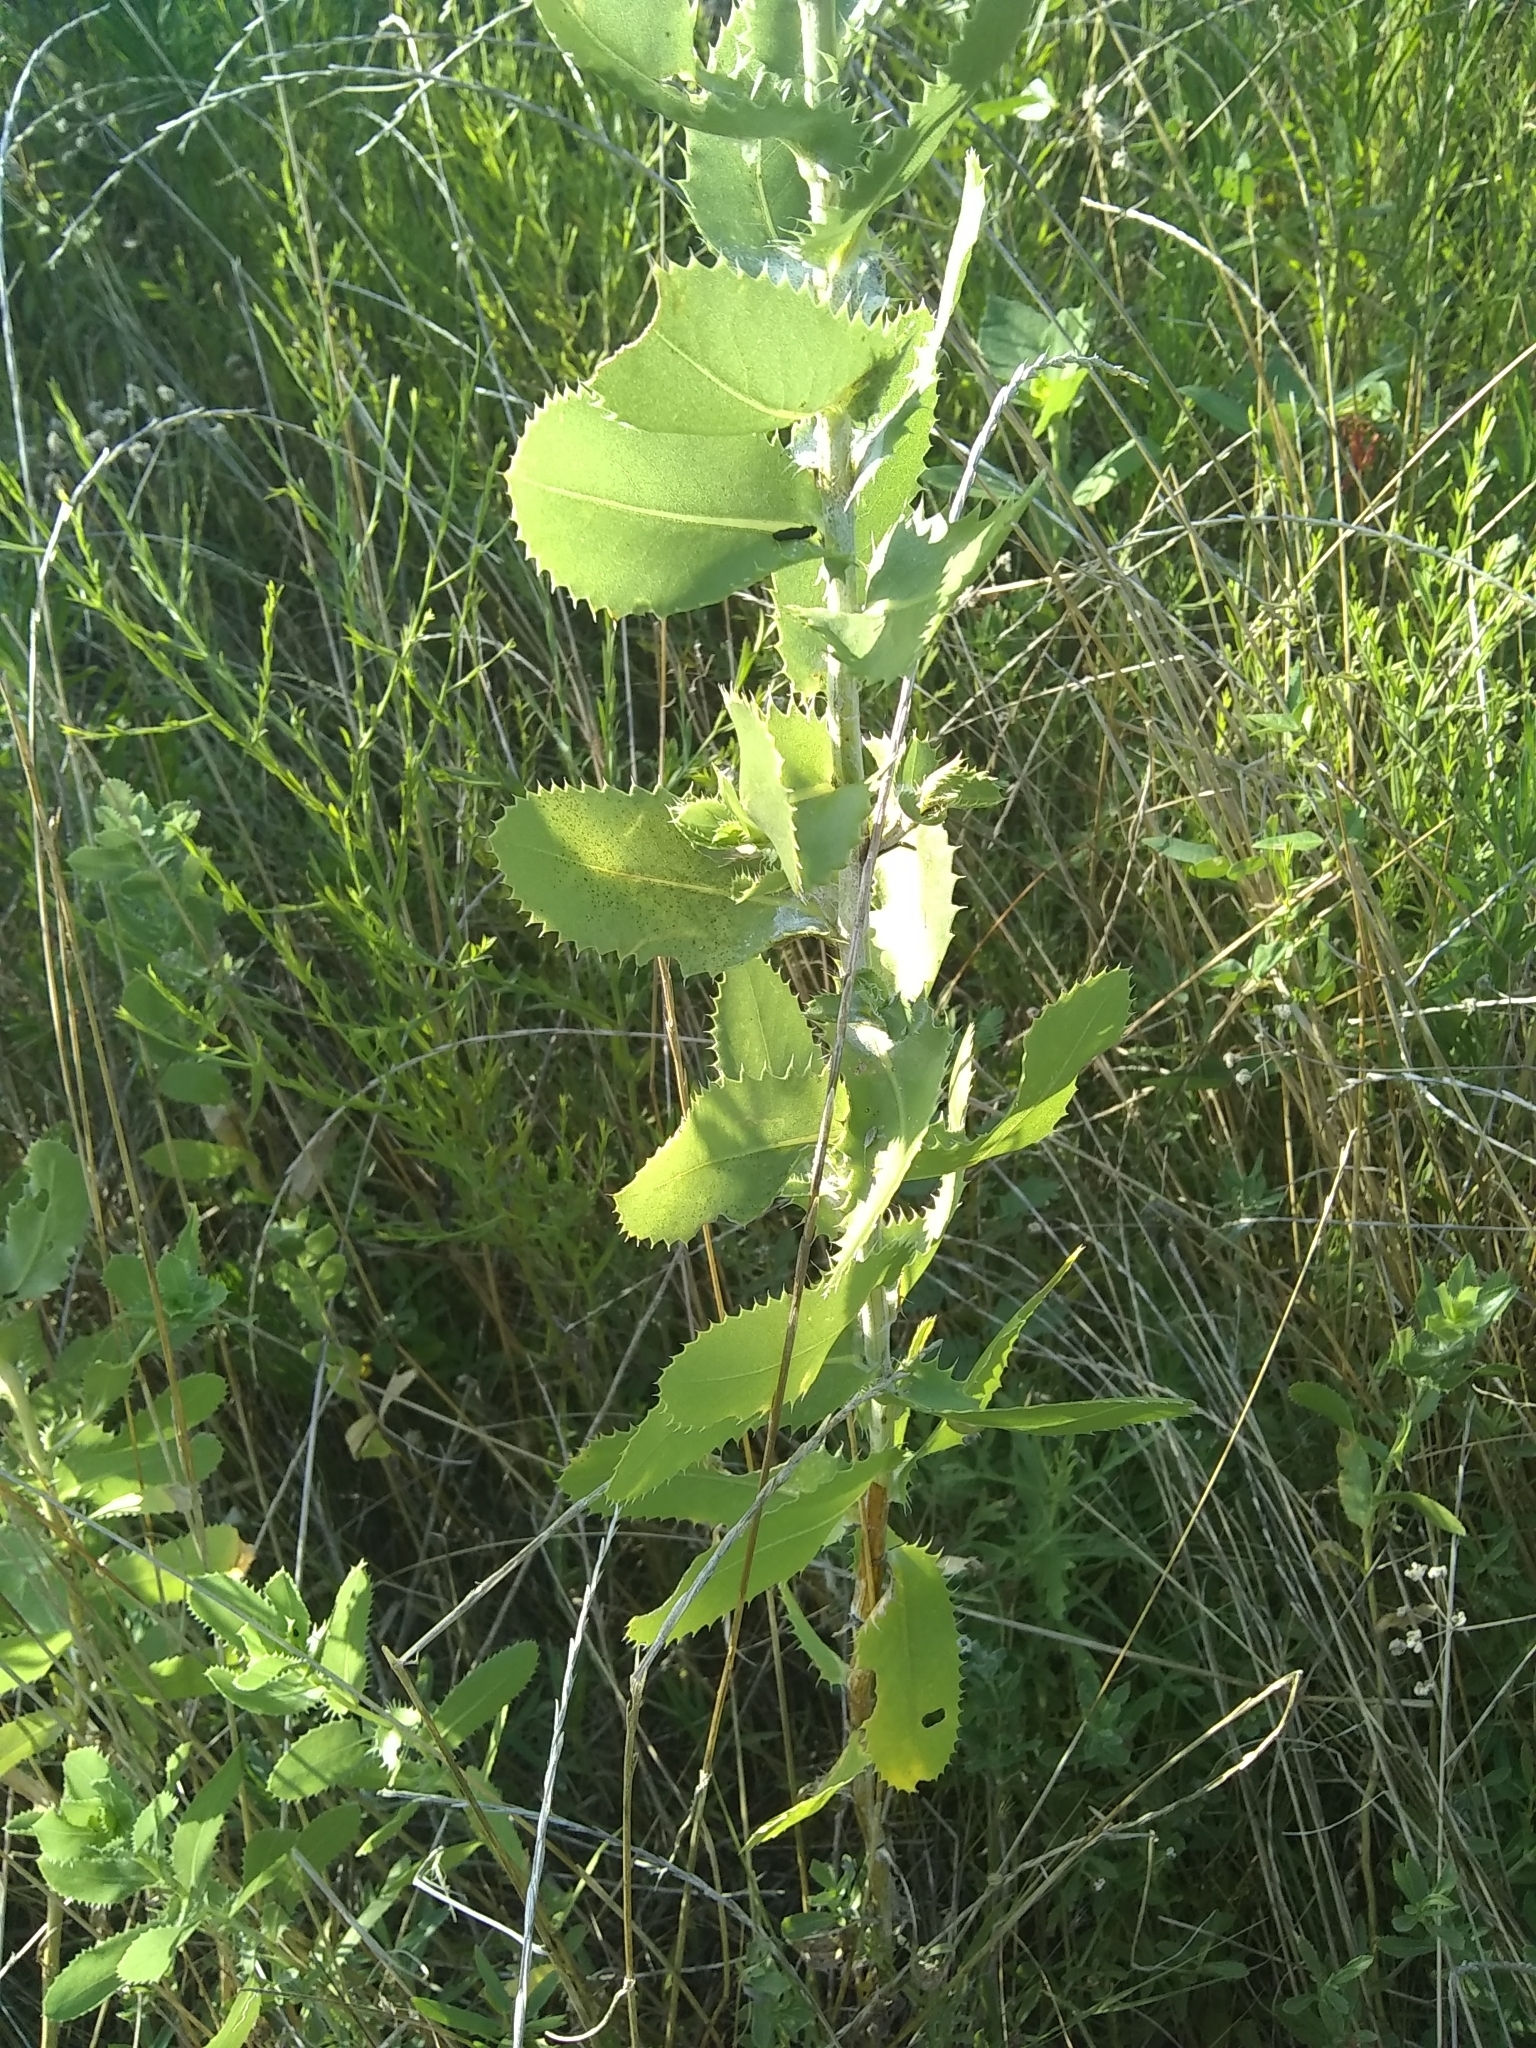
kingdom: Plantae
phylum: Tracheophyta
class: Magnoliopsida
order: Asterales
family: Asteraceae
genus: Grindelia
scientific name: Grindelia ciliata
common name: Goldenweed
